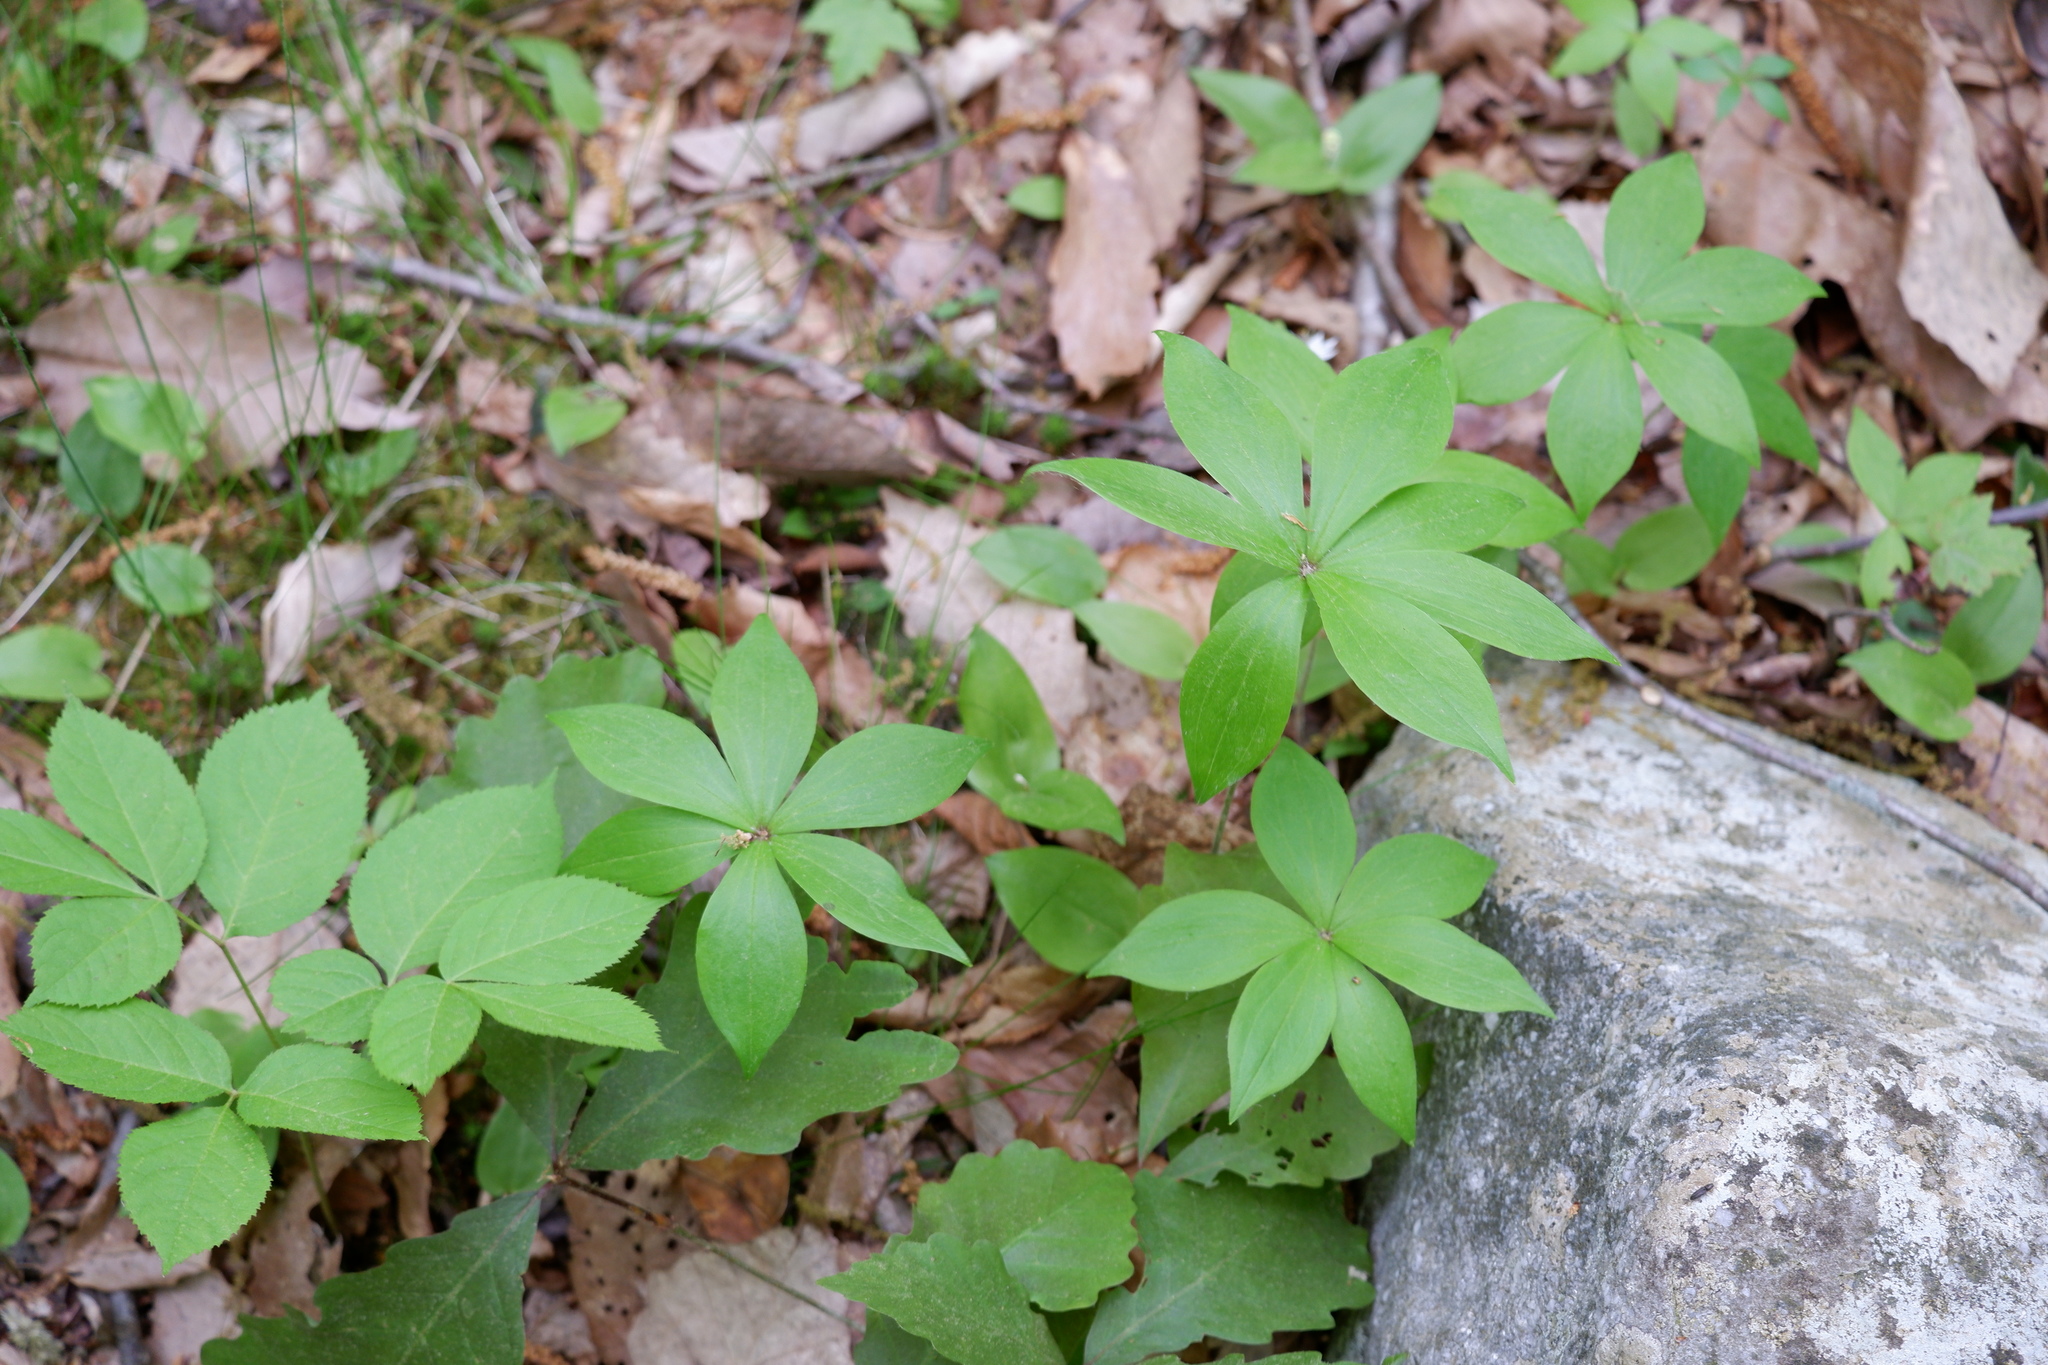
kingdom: Plantae
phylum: Tracheophyta
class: Liliopsida
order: Liliales
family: Liliaceae
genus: Medeola
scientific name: Medeola virginiana
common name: Indian cucumber-root
